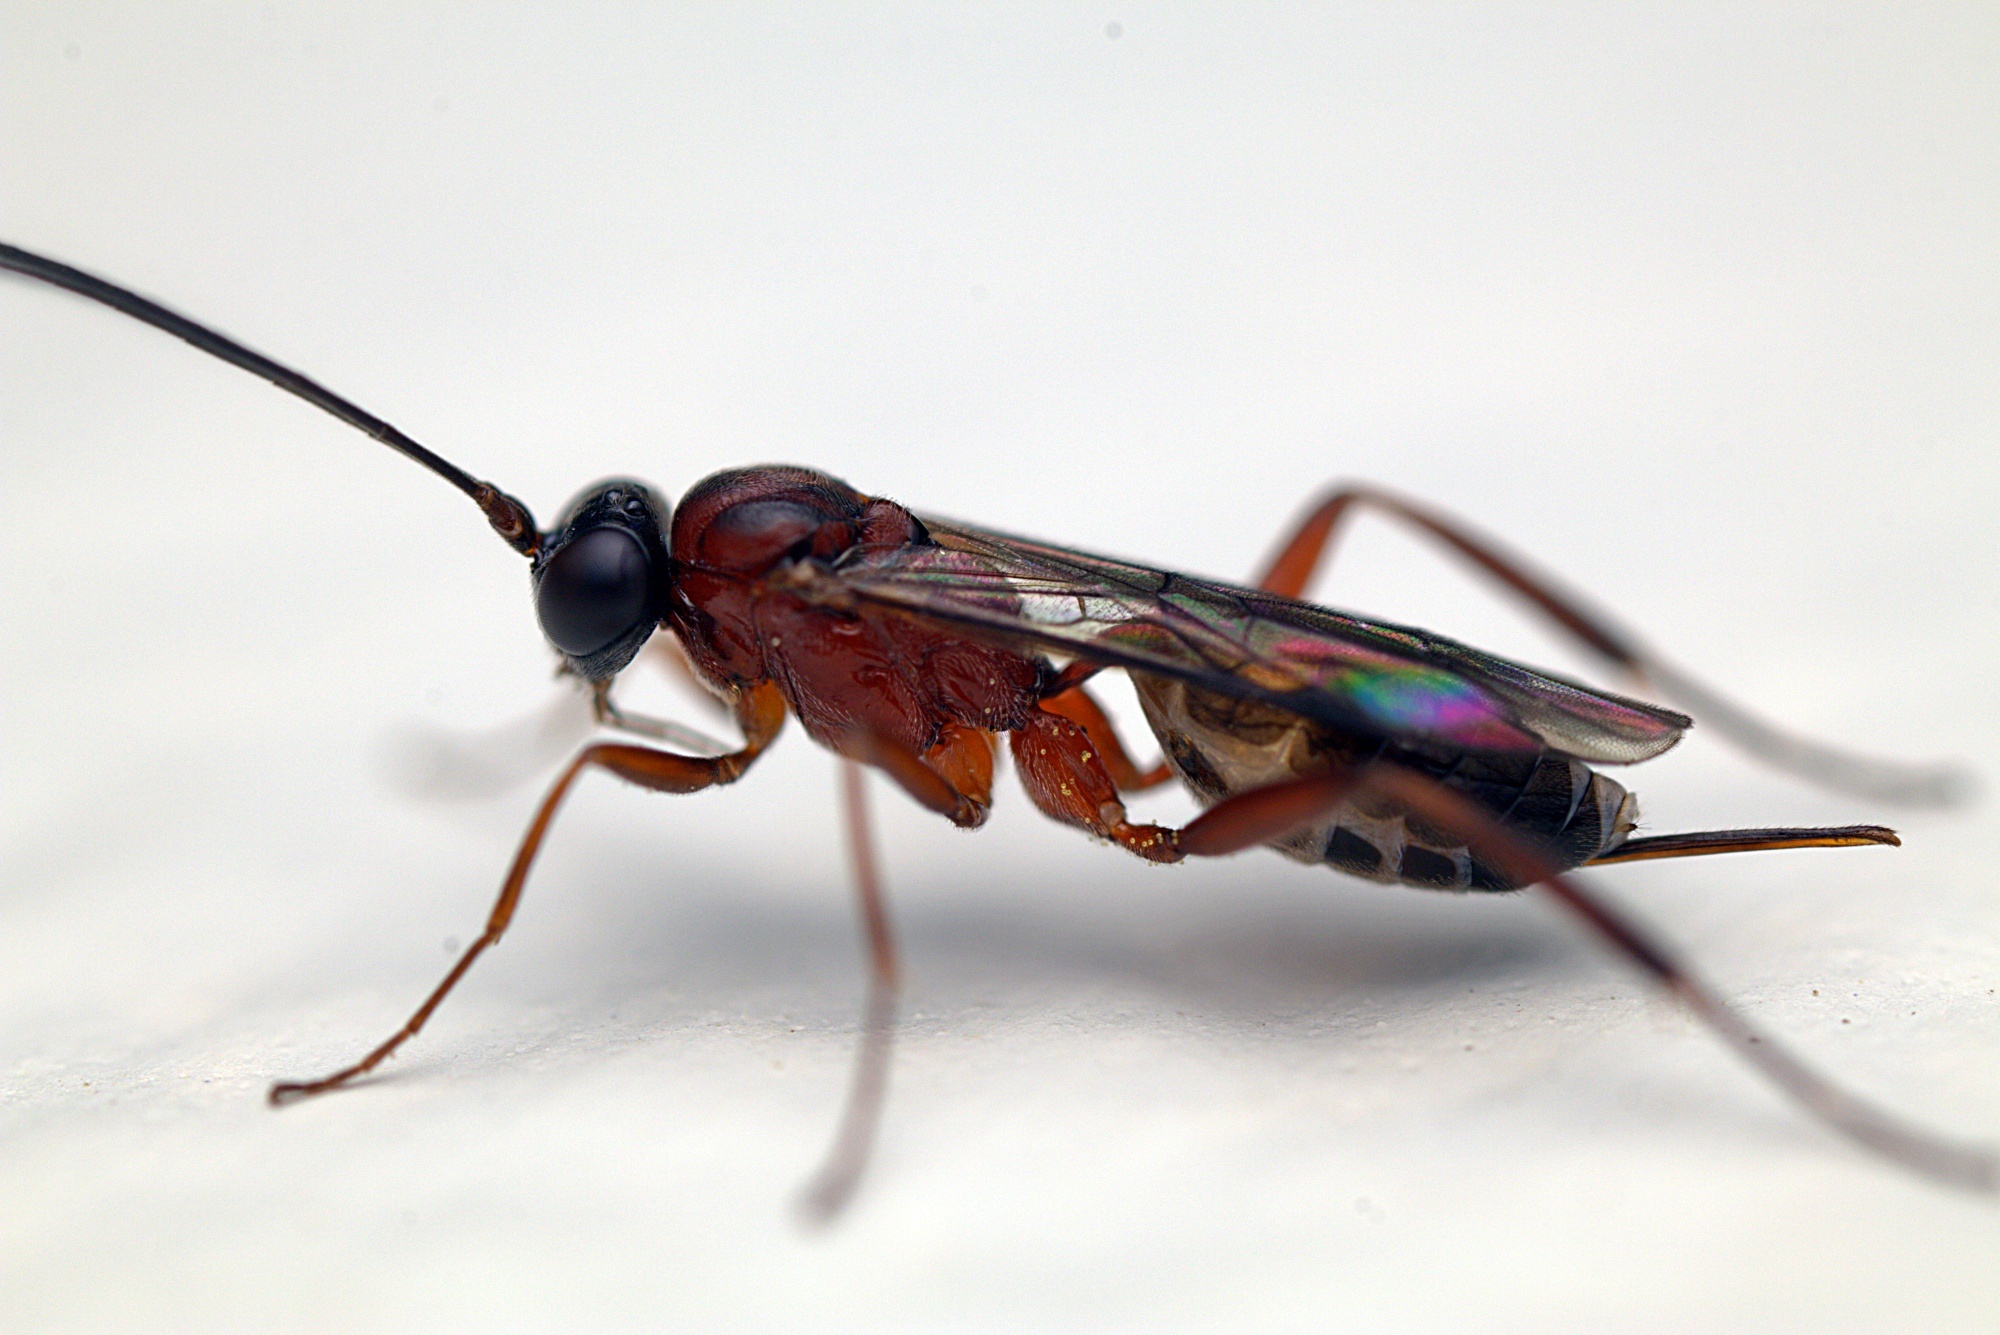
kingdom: Animalia
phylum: Arthropoda
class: Insecta
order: Hymenoptera
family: Ichneumonidae
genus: Amblyaclastus
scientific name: Amblyaclastus melanops
